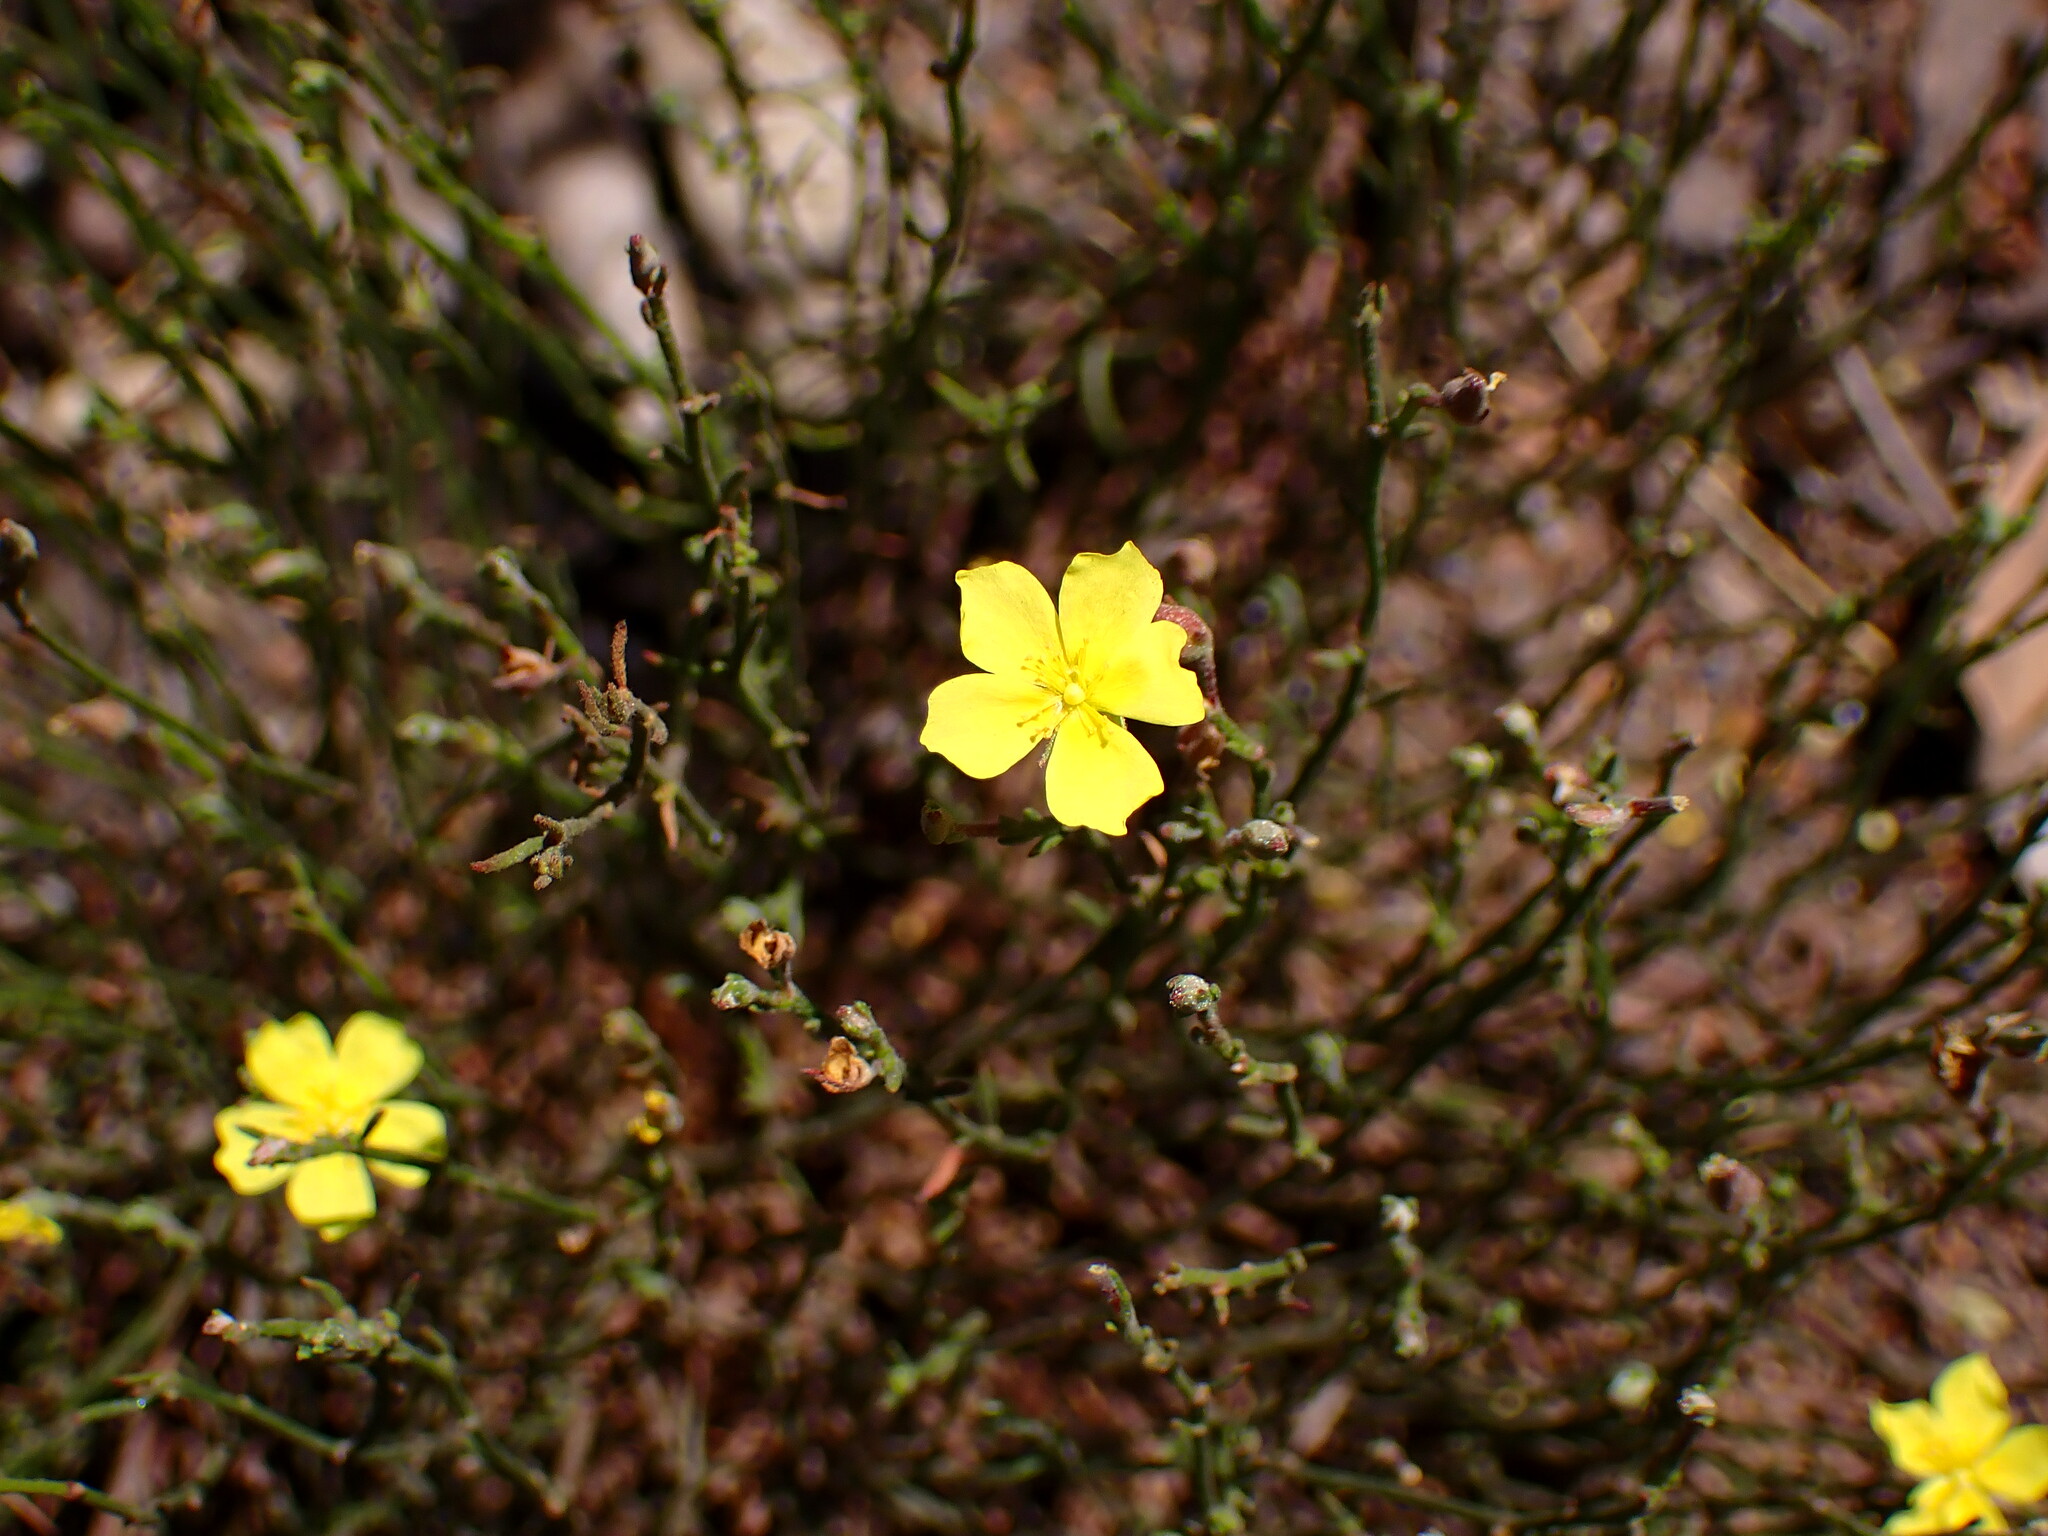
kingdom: Plantae
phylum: Tracheophyta
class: Magnoliopsida
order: Malvales
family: Cistaceae
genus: Crocanthemum
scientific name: Crocanthemum scoparium
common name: Broom-rose
